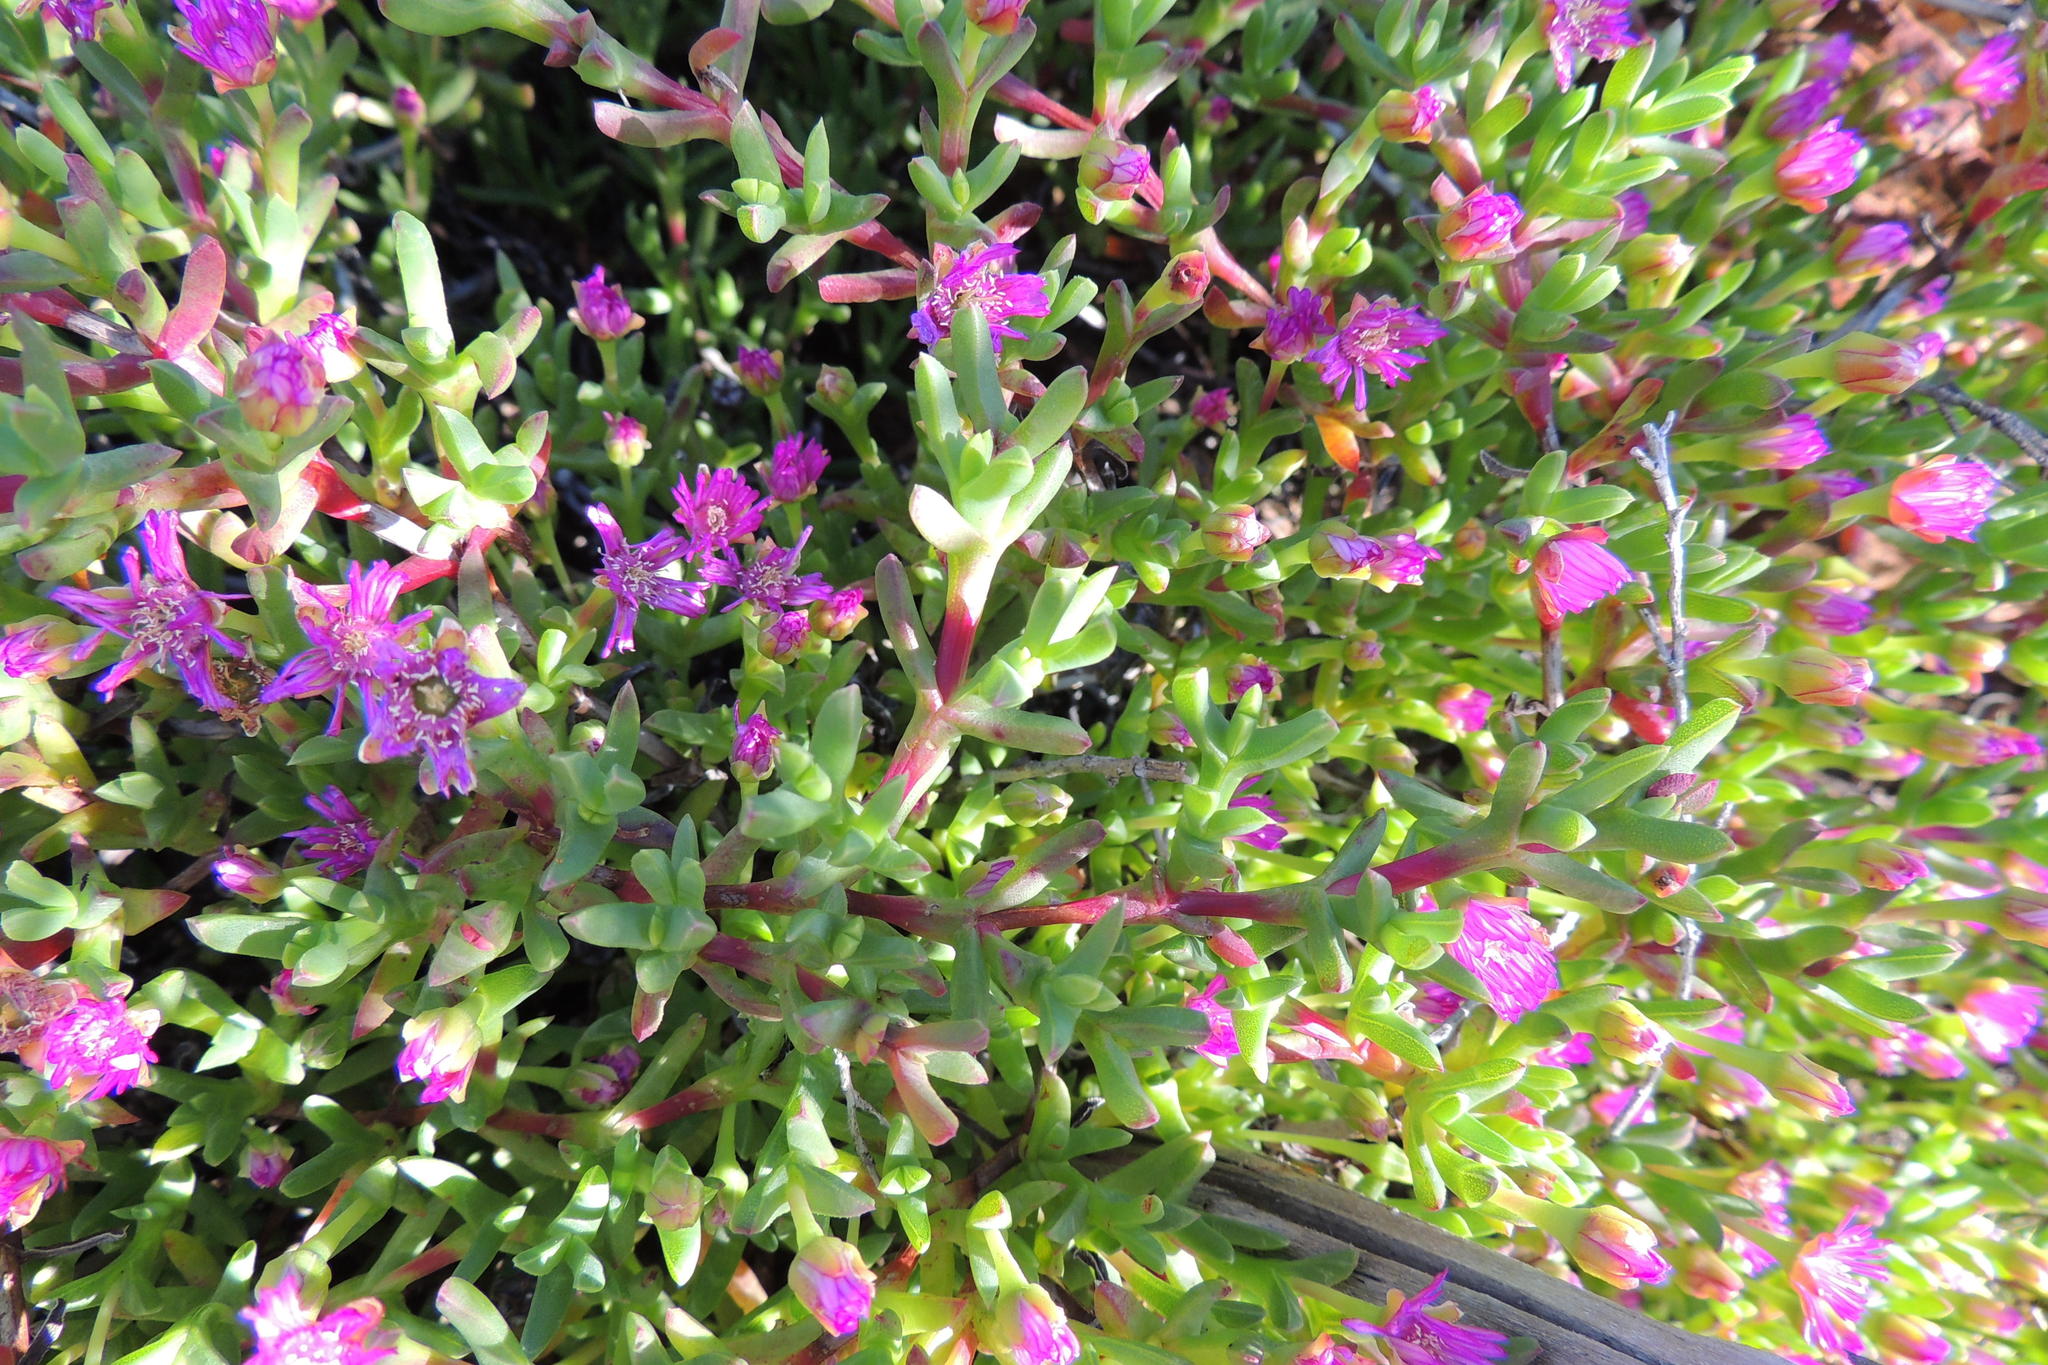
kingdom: Plantae
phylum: Tracheophyta
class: Magnoliopsida
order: Caryophyllales
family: Aizoaceae
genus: Ruschia
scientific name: Ruschia lineolata
